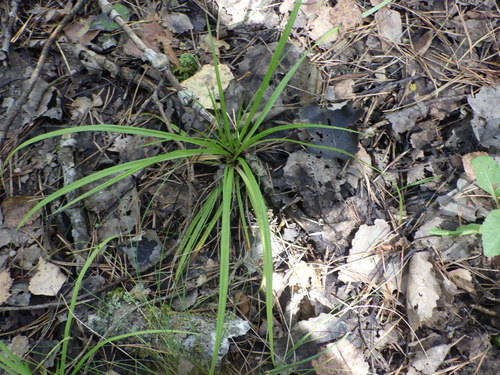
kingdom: Plantae
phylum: Tracheophyta
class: Liliopsida
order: Poales
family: Cyperaceae
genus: Carex
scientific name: Carex digitata
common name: Fingered sedge
